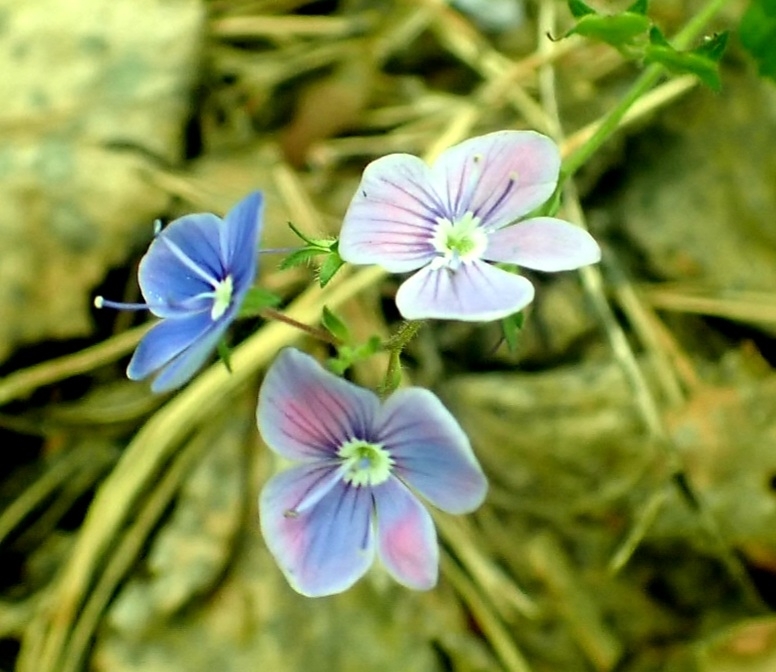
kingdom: Plantae
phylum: Tracheophyta
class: Magnoliopsida
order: Lamiales
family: Plantaginaceae
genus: Veronica
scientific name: Veronica chamaedrys
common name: Germander speedwell
